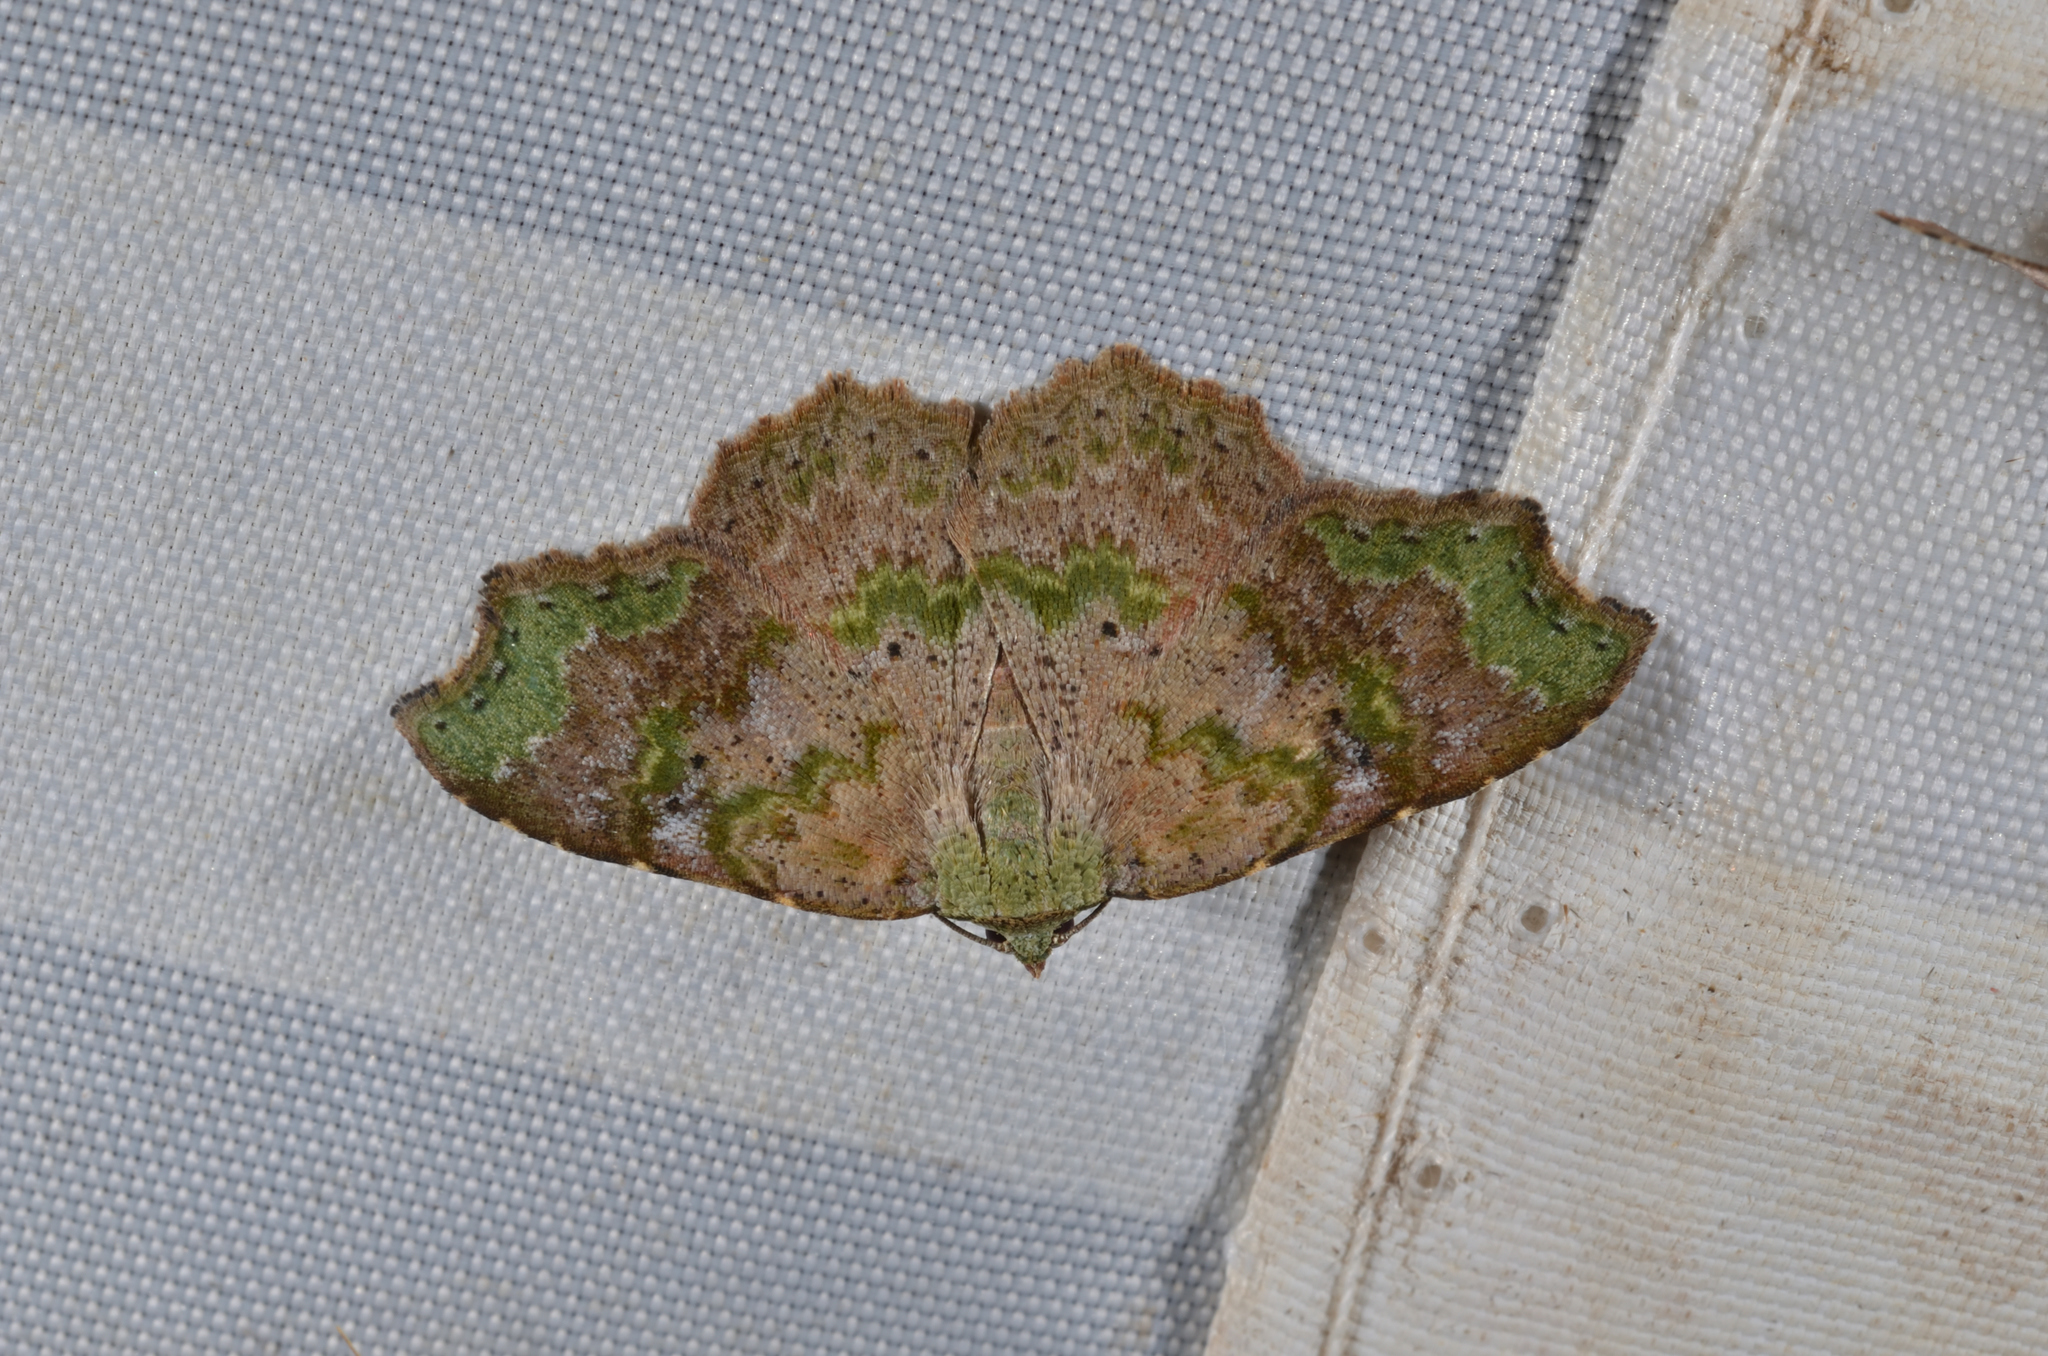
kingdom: Animalia
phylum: Arthropoda
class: Insecta
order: Lepidoptera
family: Erebidae
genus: Laspeyria
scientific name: Laspeyria viridicincta
